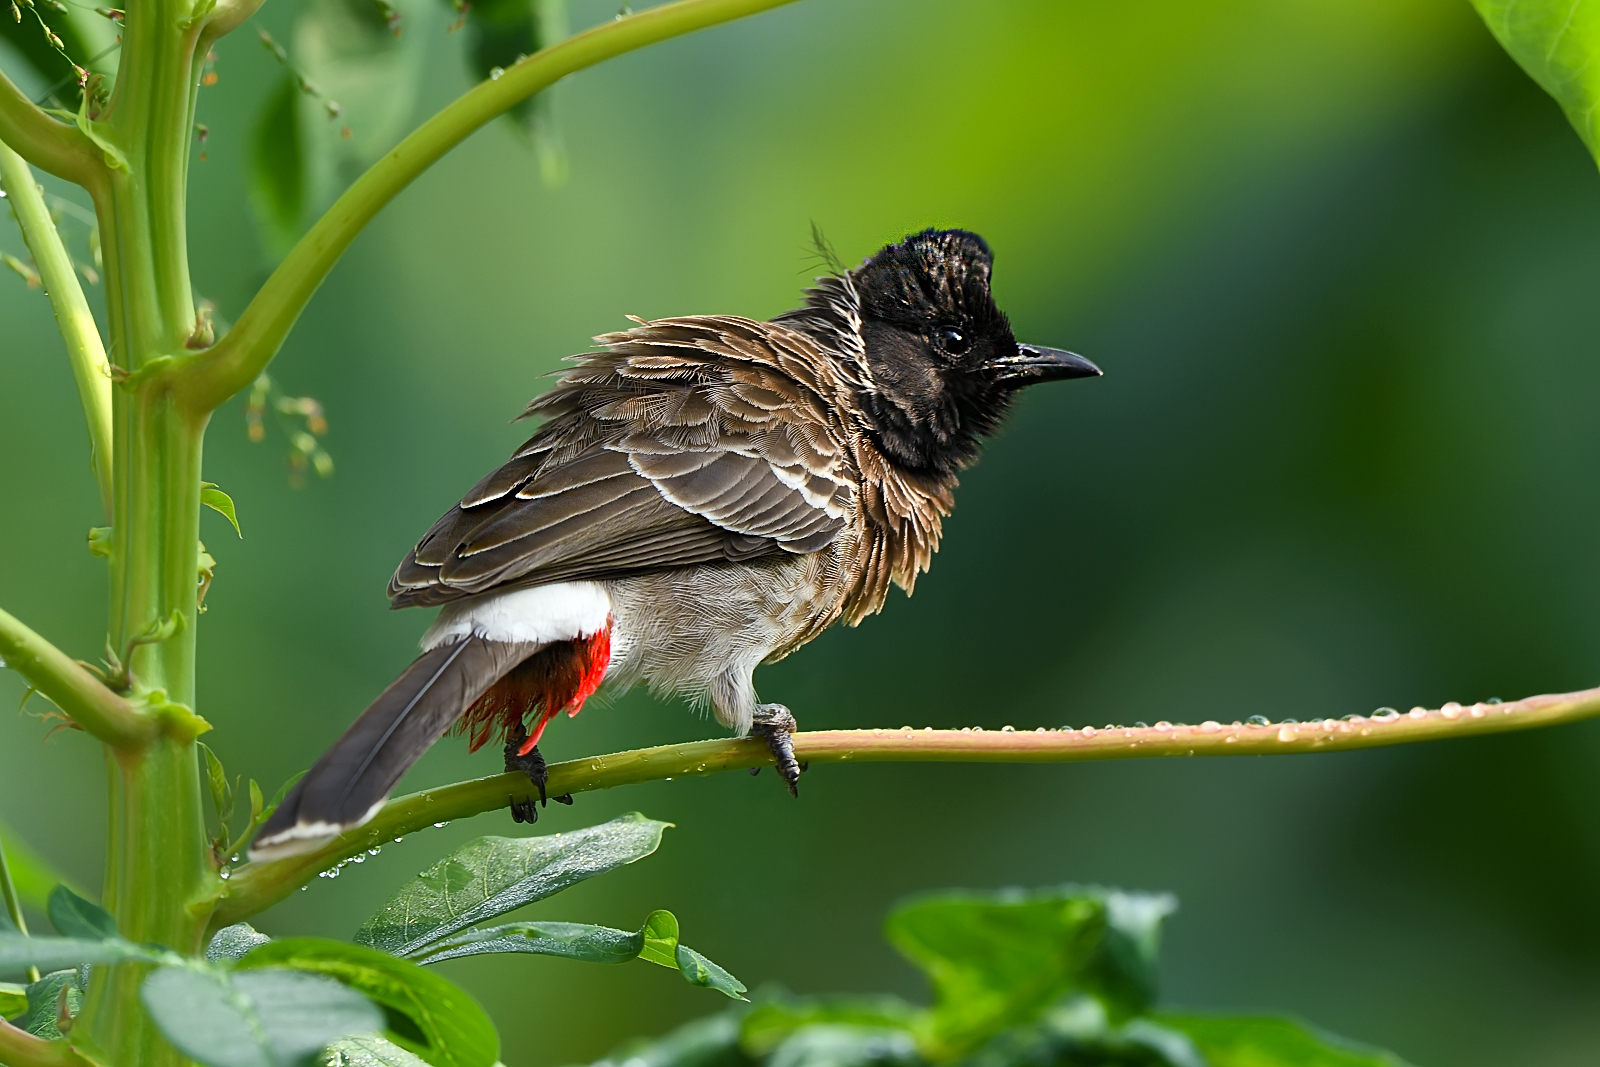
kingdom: Animalia
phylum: Chordata
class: Aves
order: Passeriformes
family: Pycnonotidae
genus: Pycnonotus
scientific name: Pycnonotus cafer
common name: Red-vented bulbul
